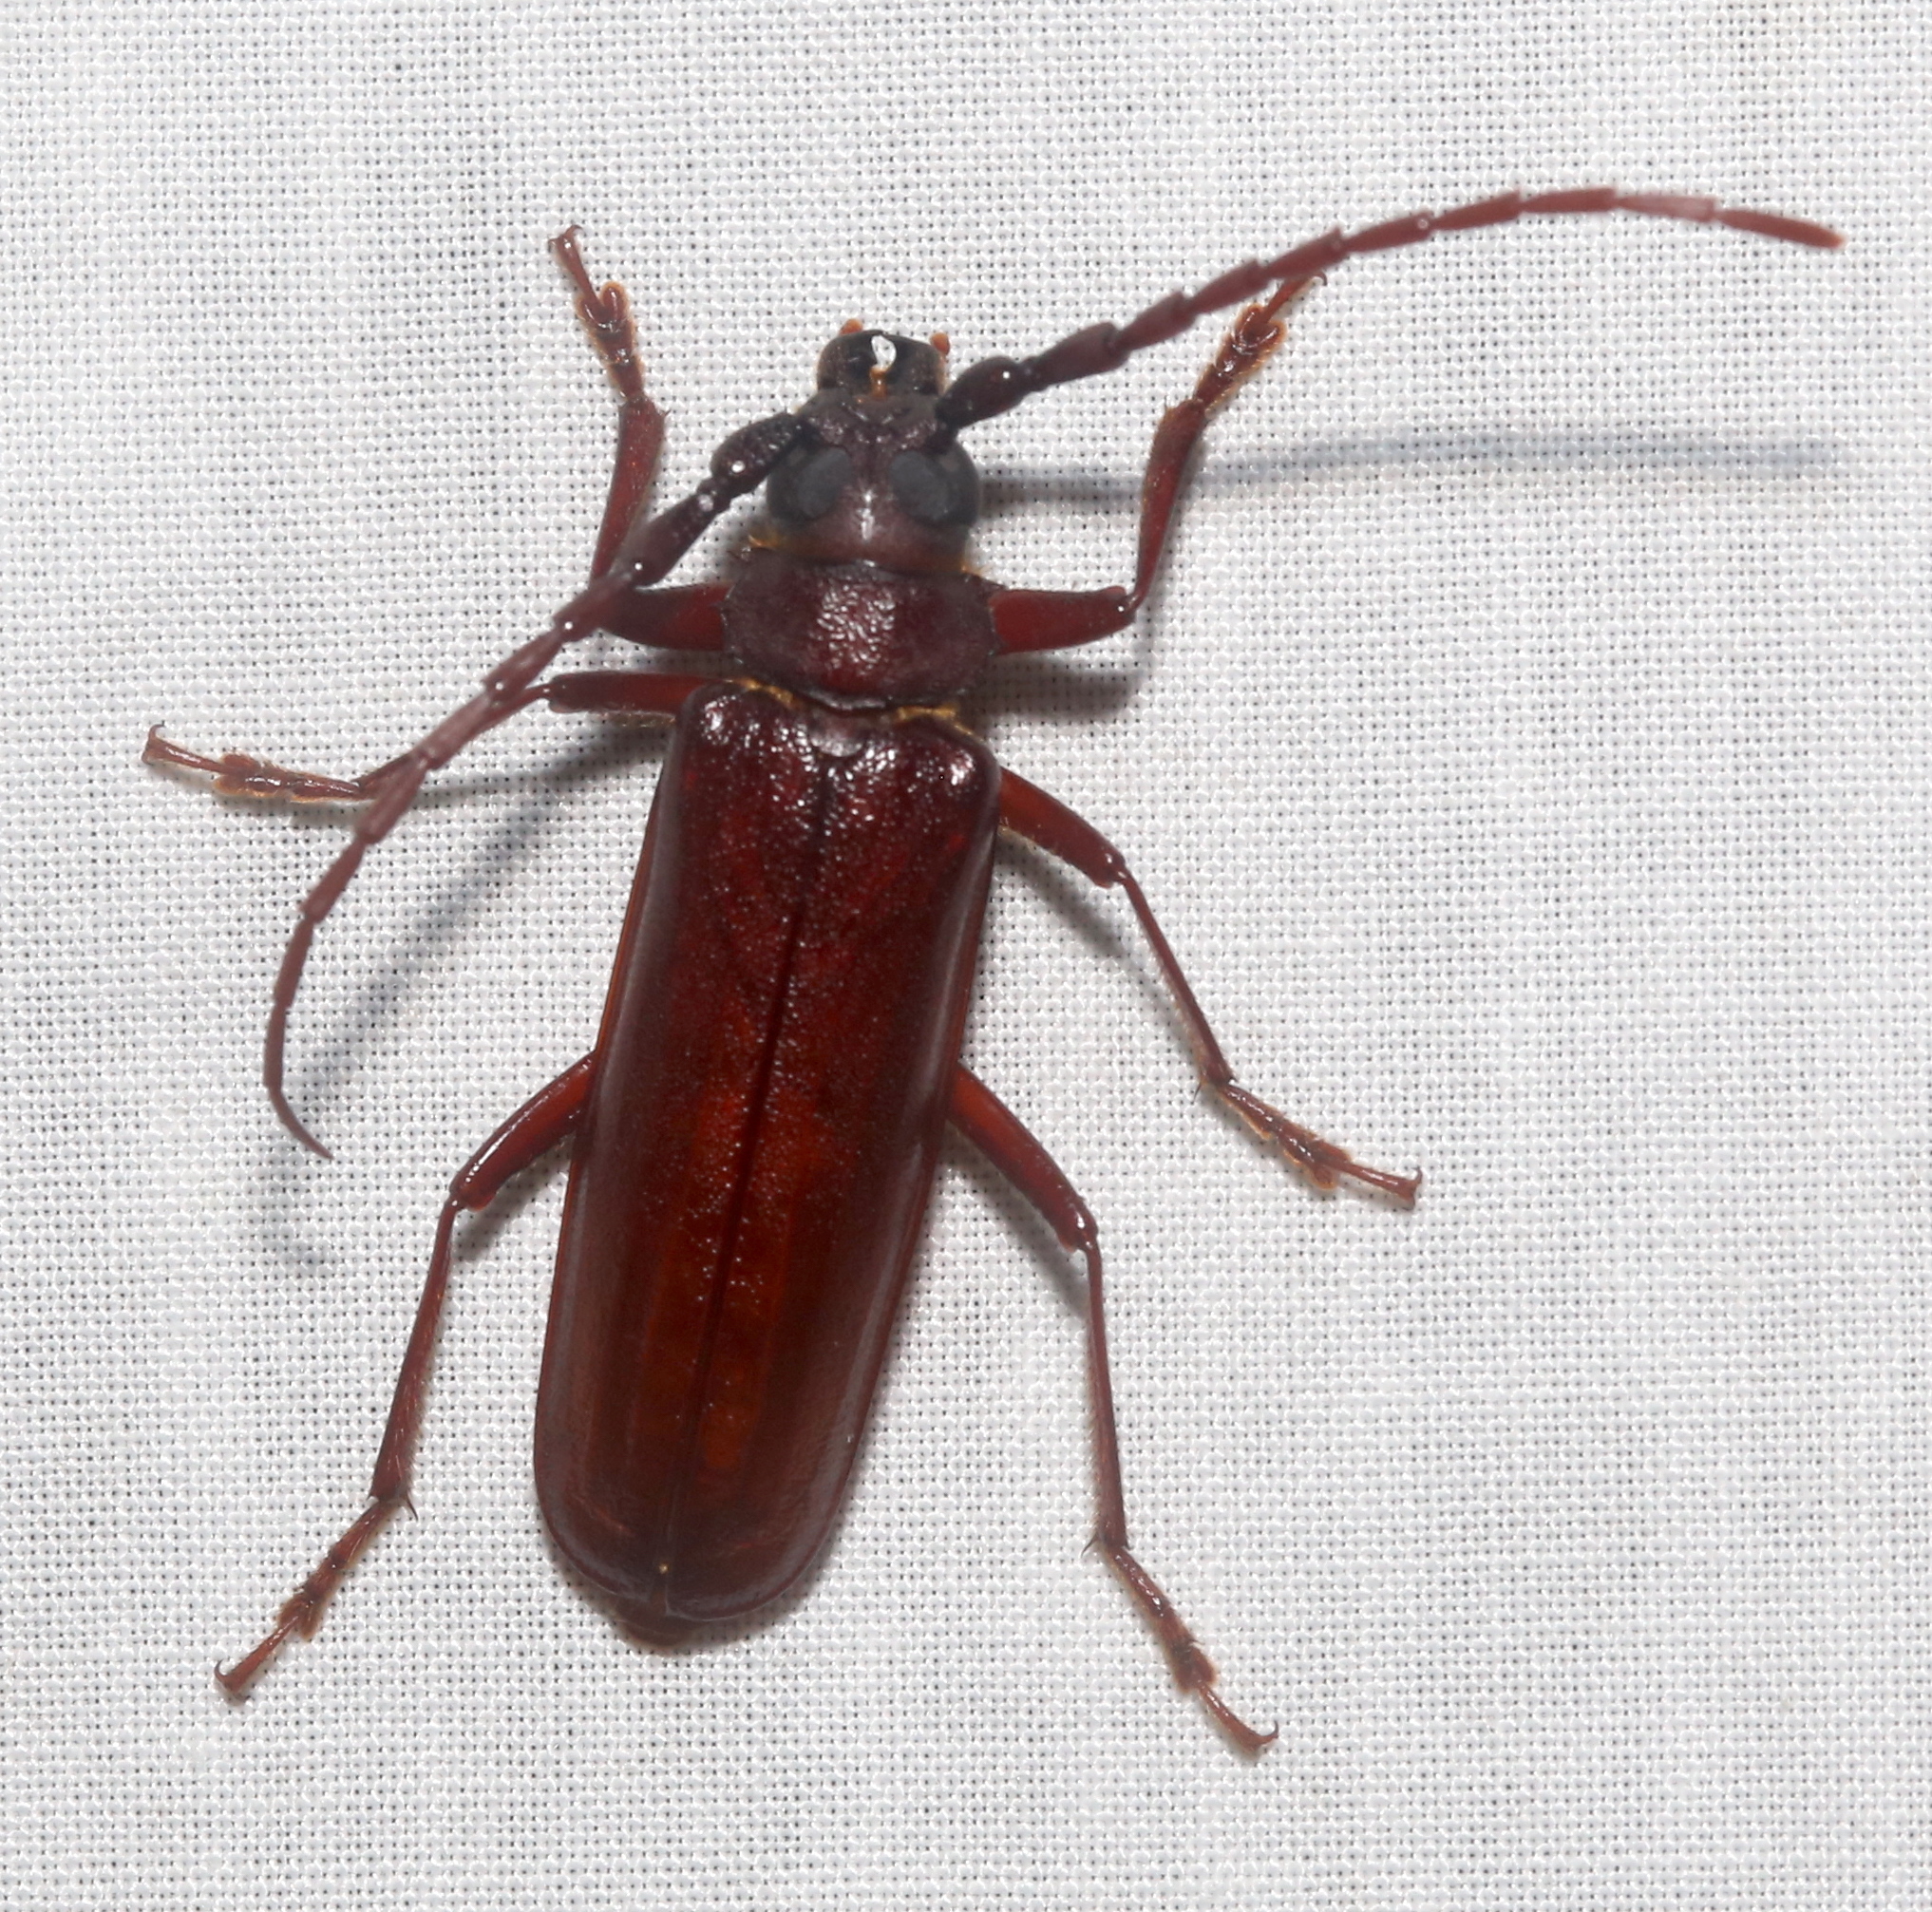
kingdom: Animalia
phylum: Arthropoda
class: Insecta
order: Coleoptera
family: Cerambycidae
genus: Orthosoma
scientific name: Orthosoma brunneum
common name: Brown prionid beetle
